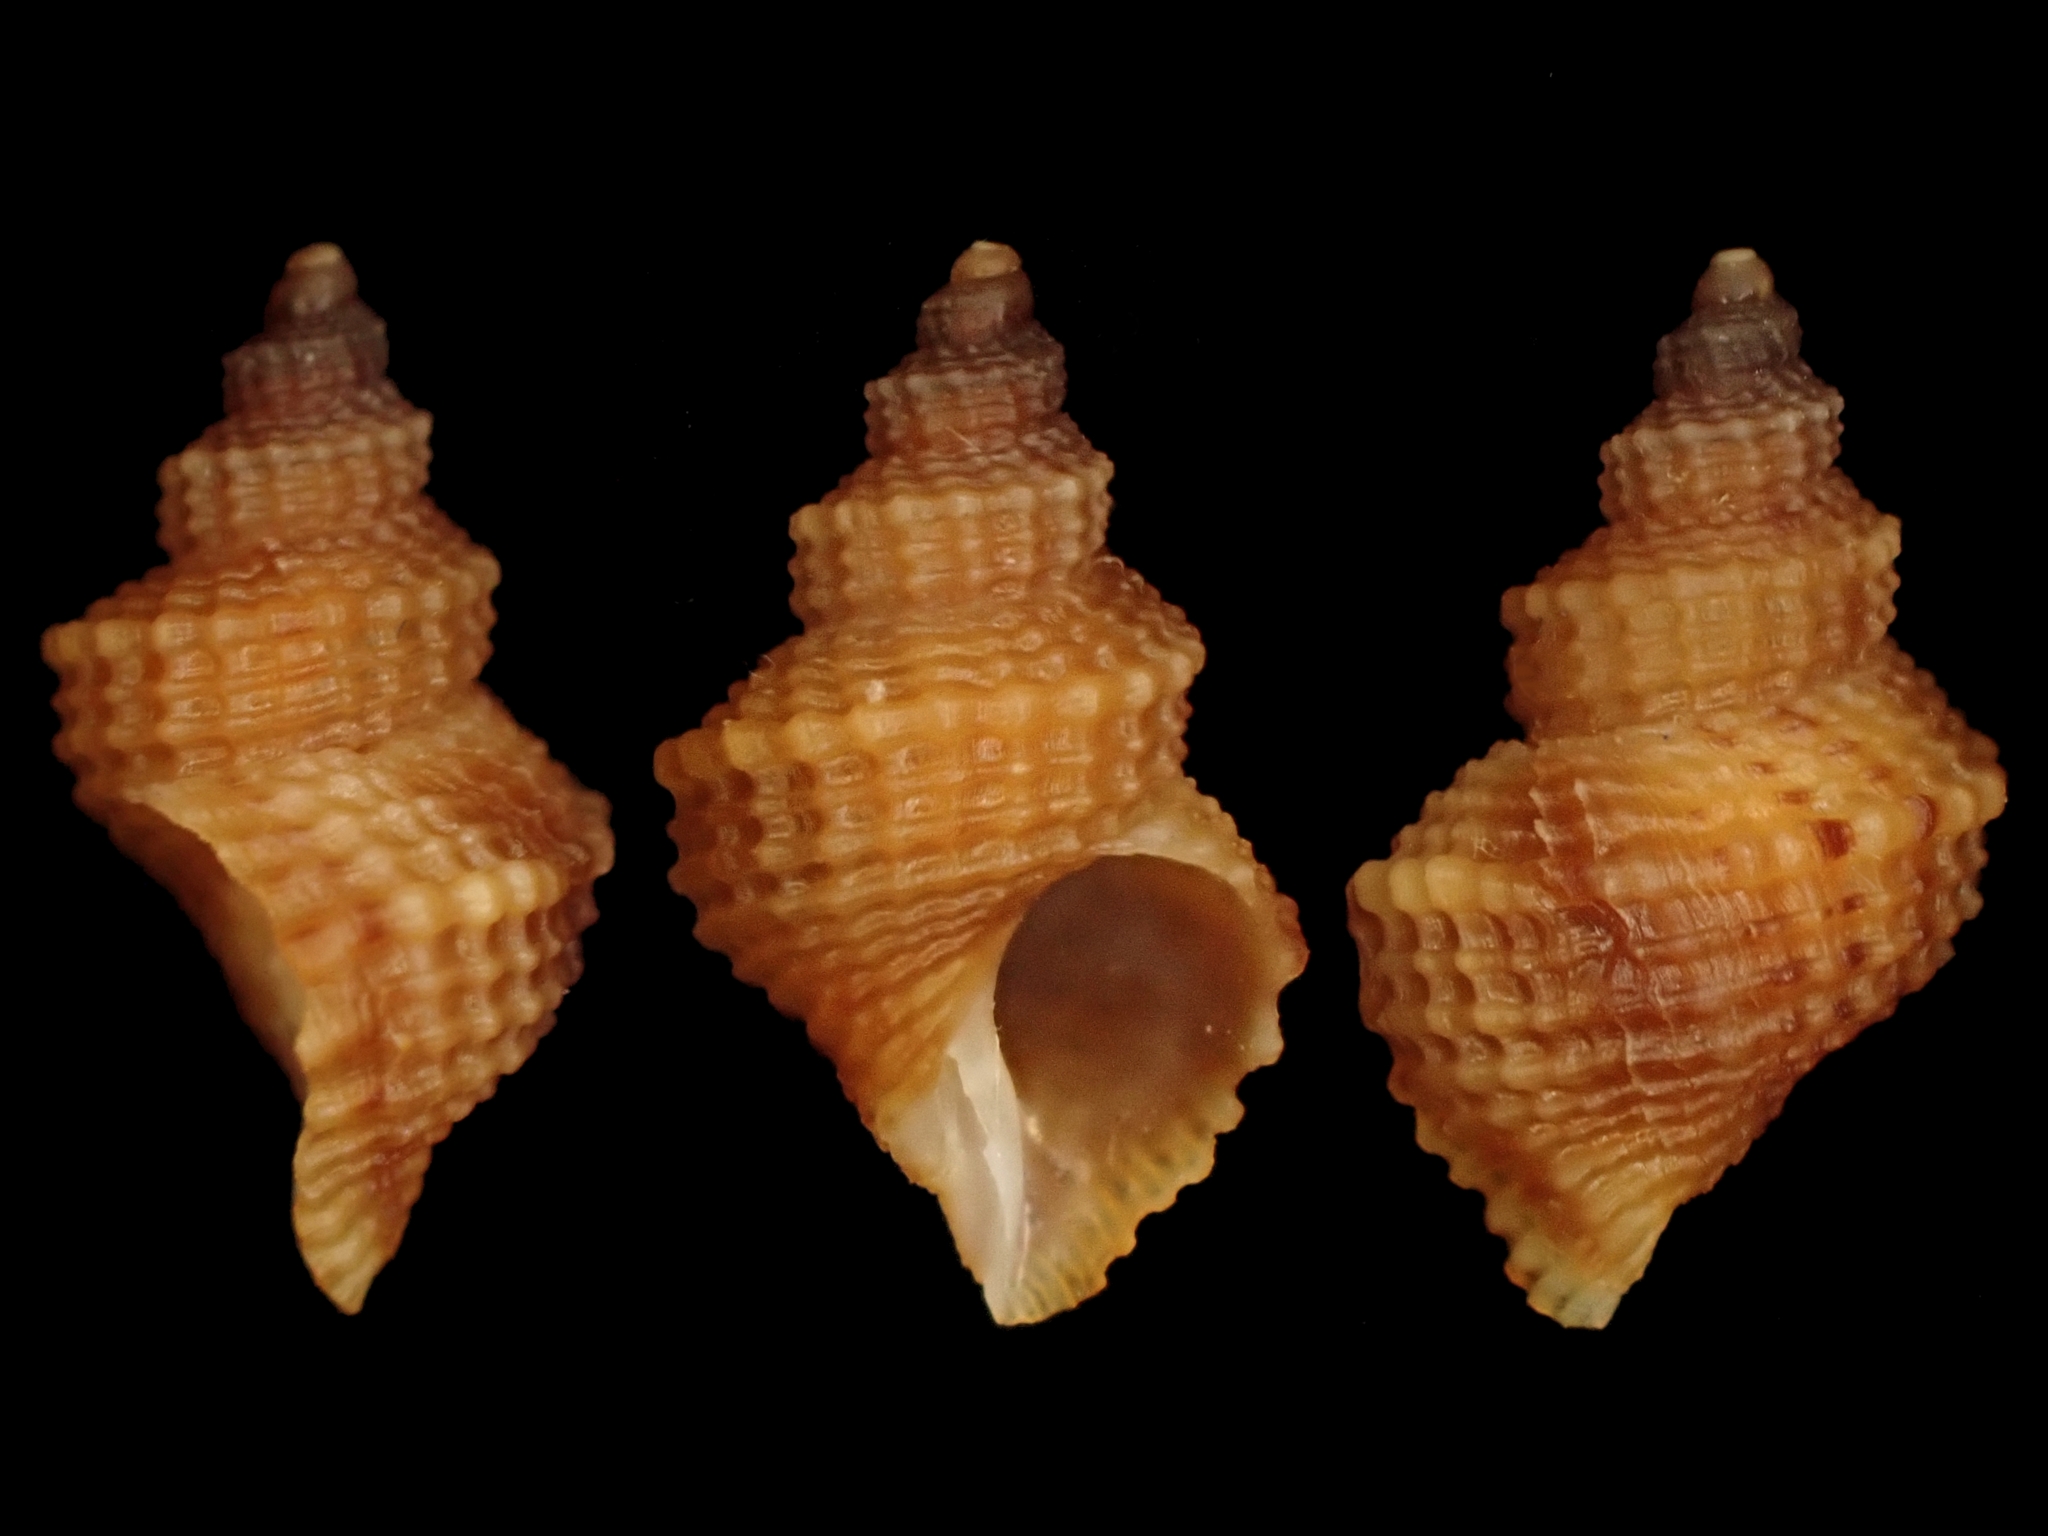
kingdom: Animalia
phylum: Mollusca
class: Gastropoda
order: Littorinimorpha
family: Capulidae
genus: Trichosirius
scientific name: Trichosirius inornatus
